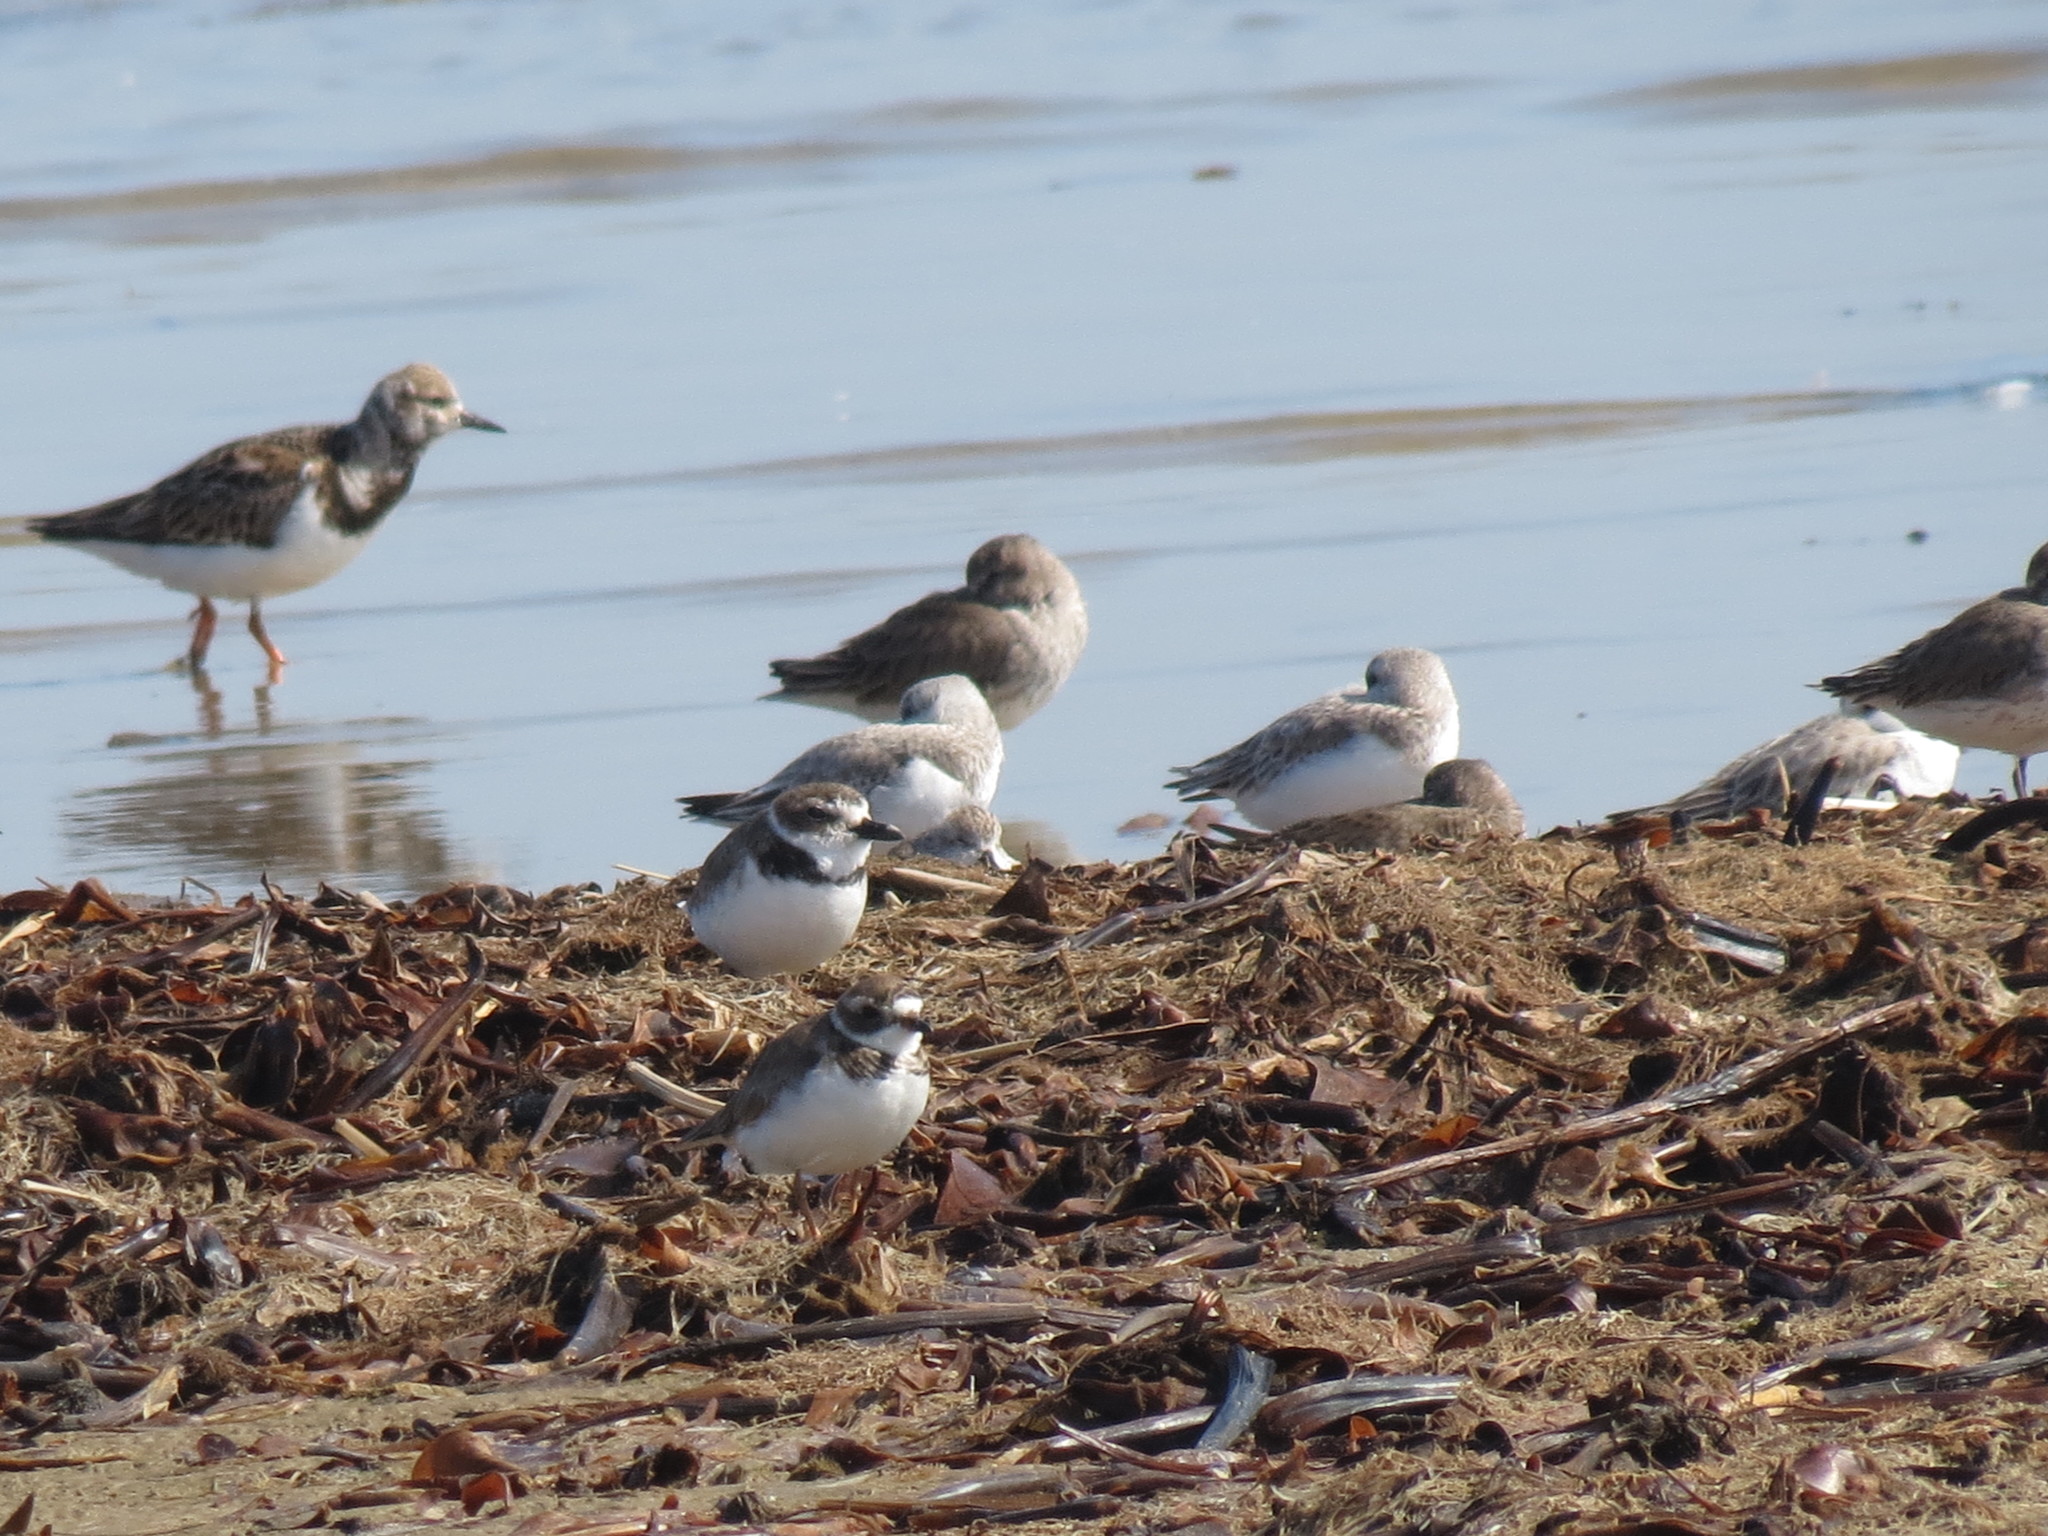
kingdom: Animalia
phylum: Chordata
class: Aves
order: Charadriiformes
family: Charadriidae
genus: Anarhynchus
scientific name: Anarhynchus
